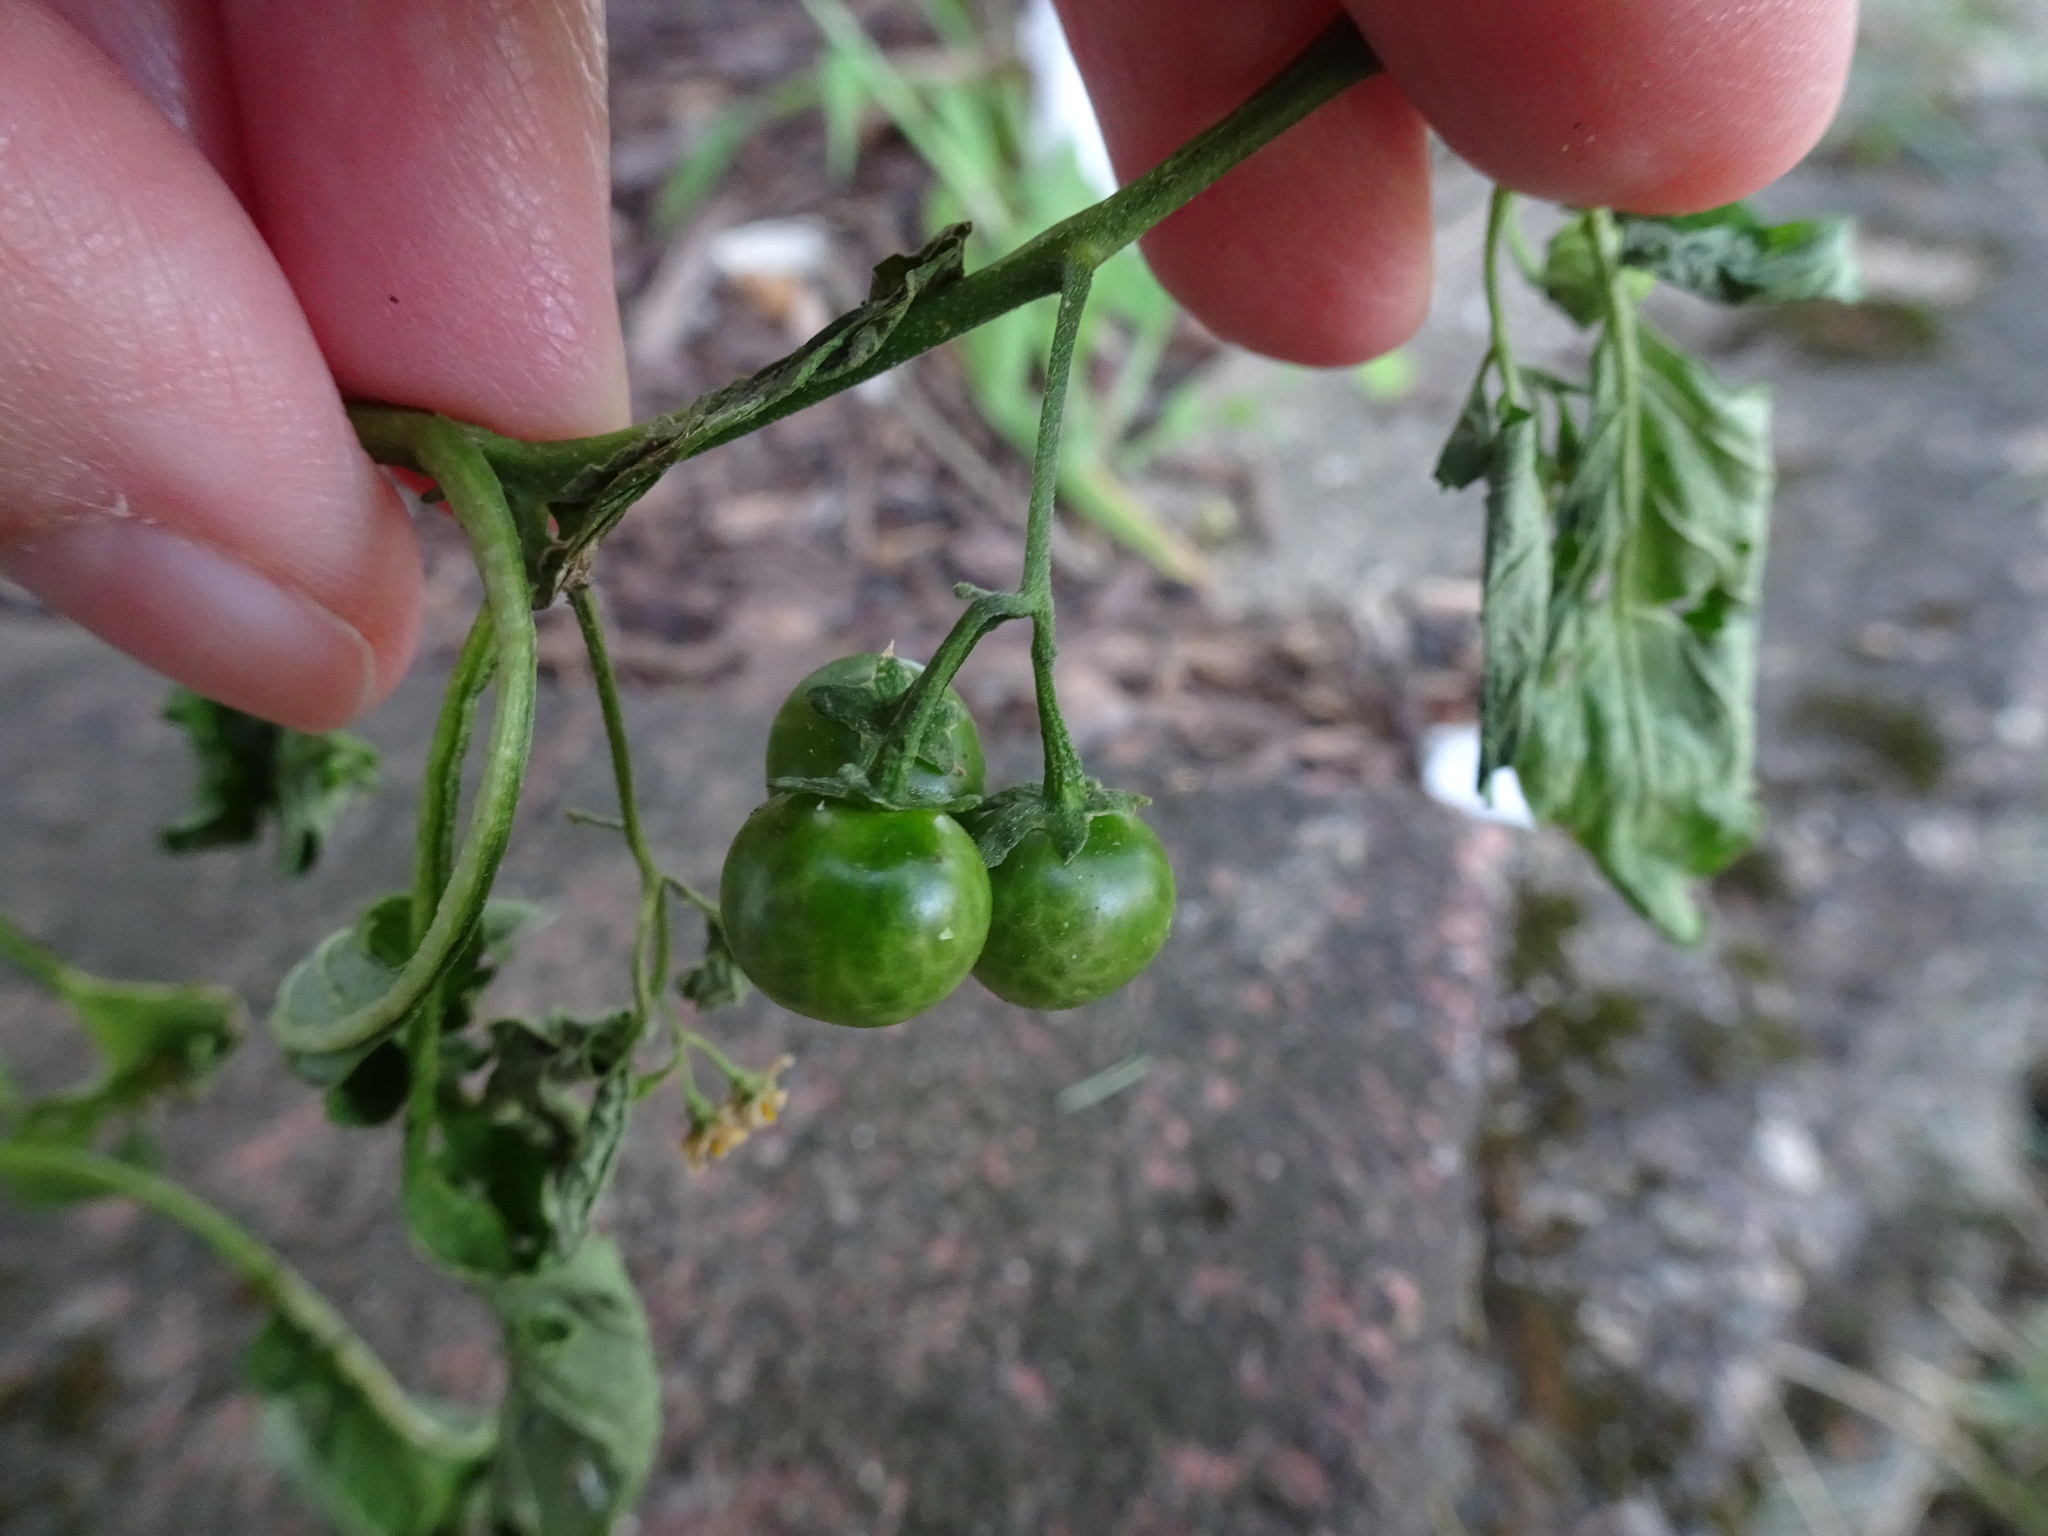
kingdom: Plantae
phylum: Tracheophyta
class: Magnoliopsida
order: Solanales
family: Solanaceae
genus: Solanum
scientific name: Solanum emulans
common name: Eastern black nightshade
